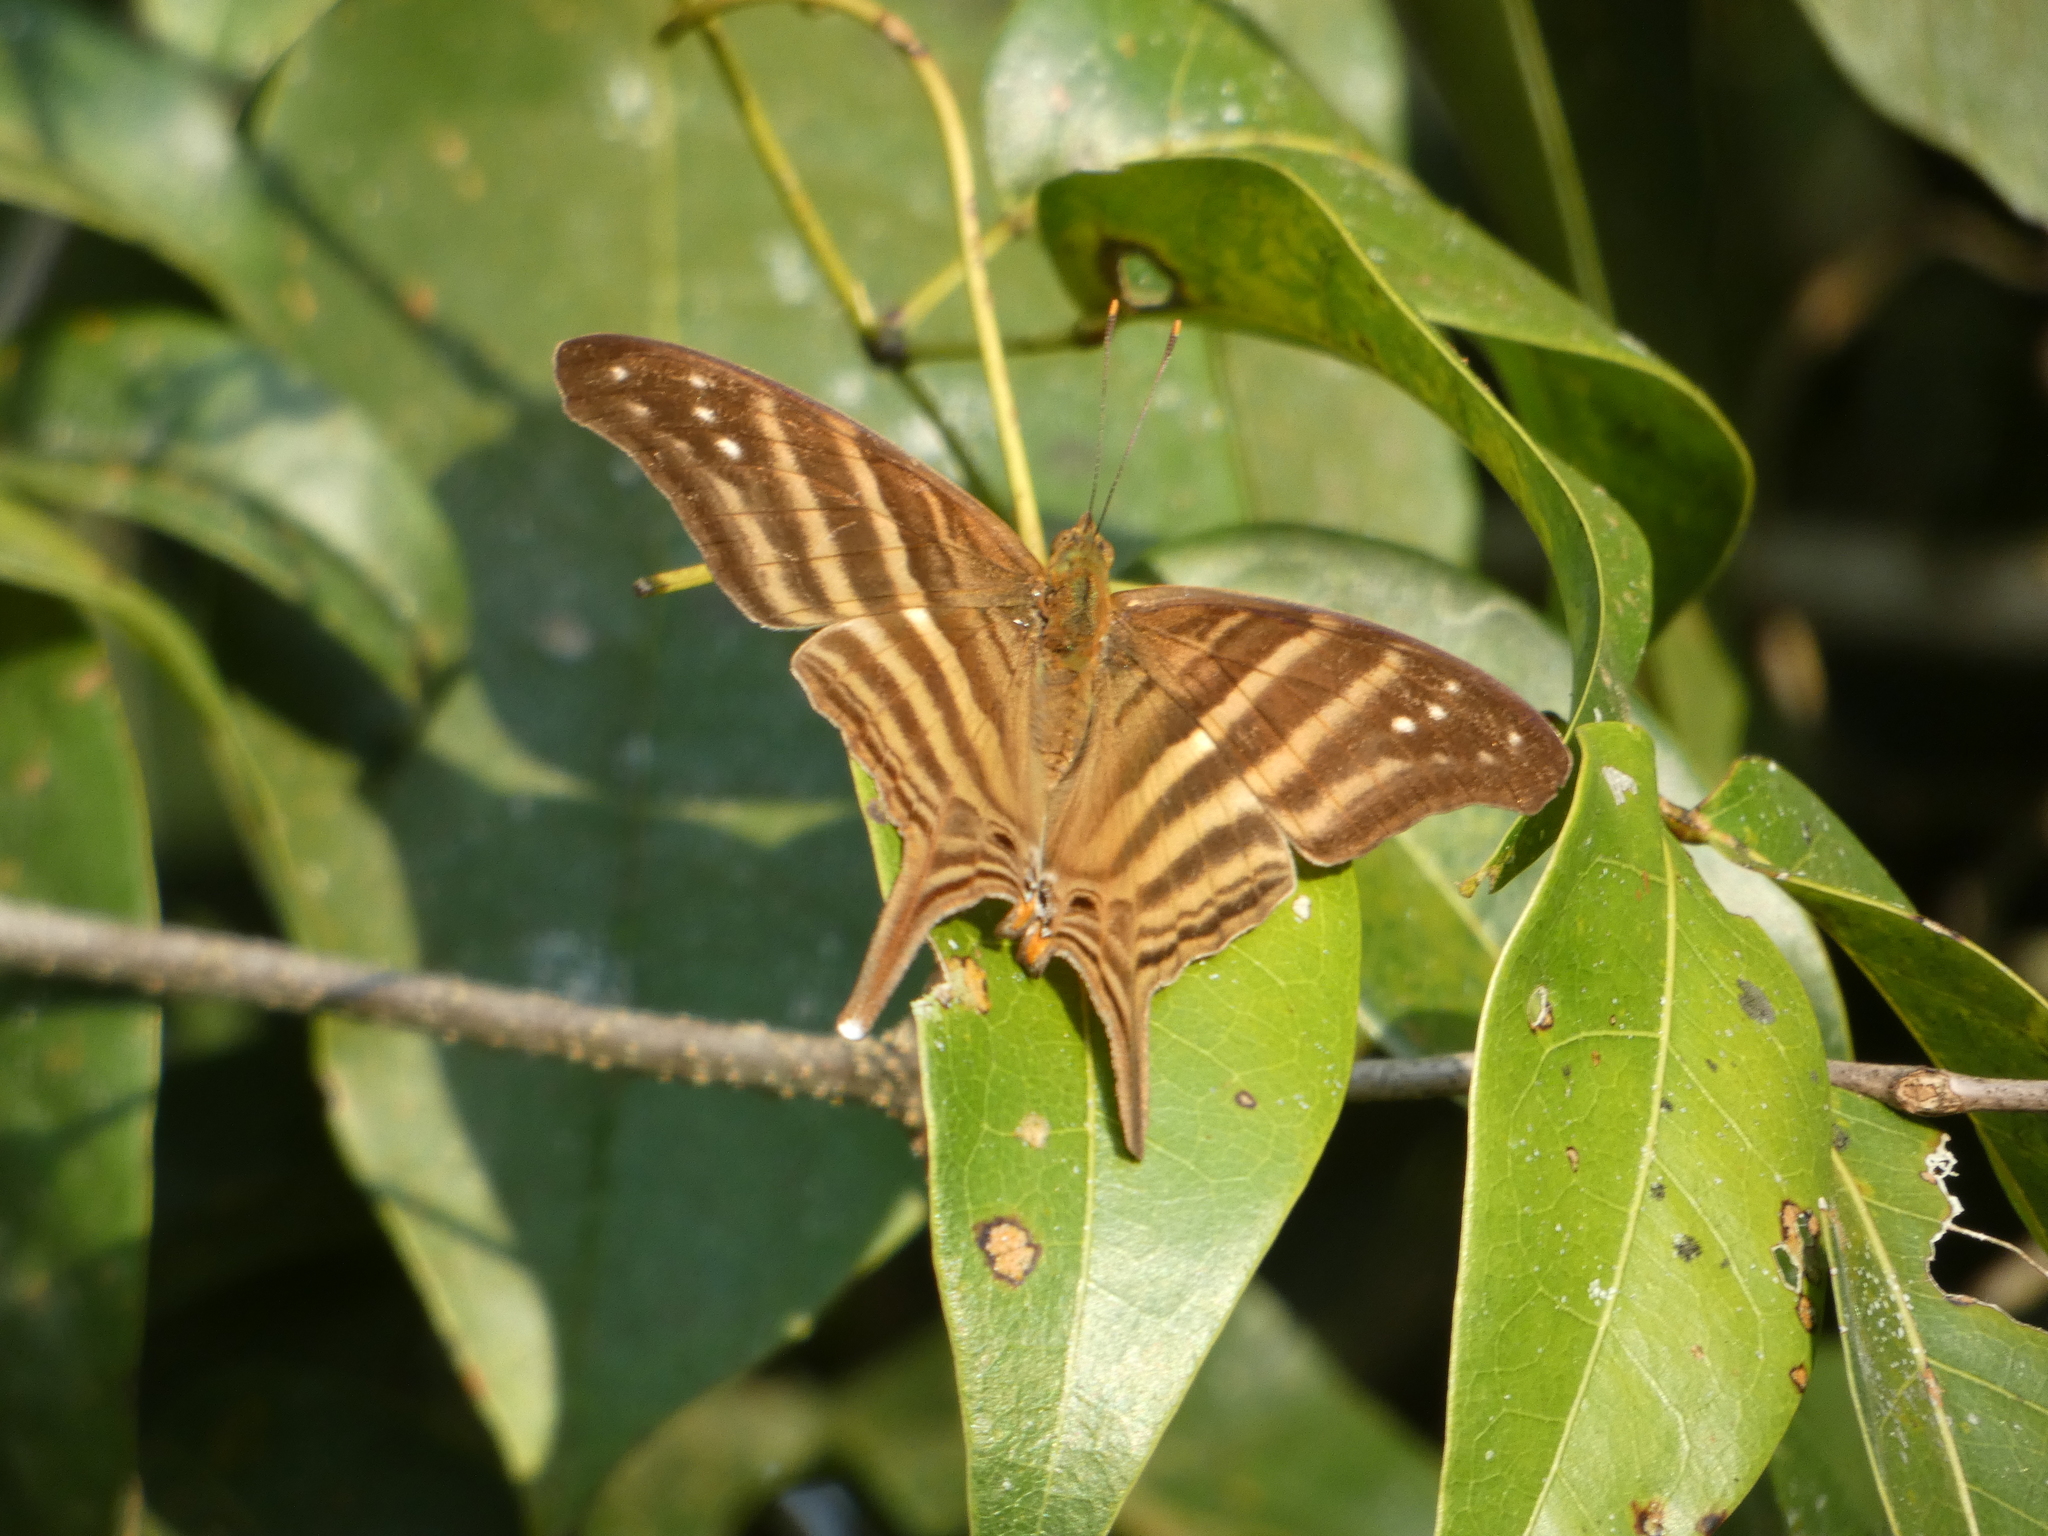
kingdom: Animalia
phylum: Arthropoda
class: Insecta
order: Lepidoptera
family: Nymphalidae
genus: Marpesia
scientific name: Marpesia chiron
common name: Many-banded daggerwing
